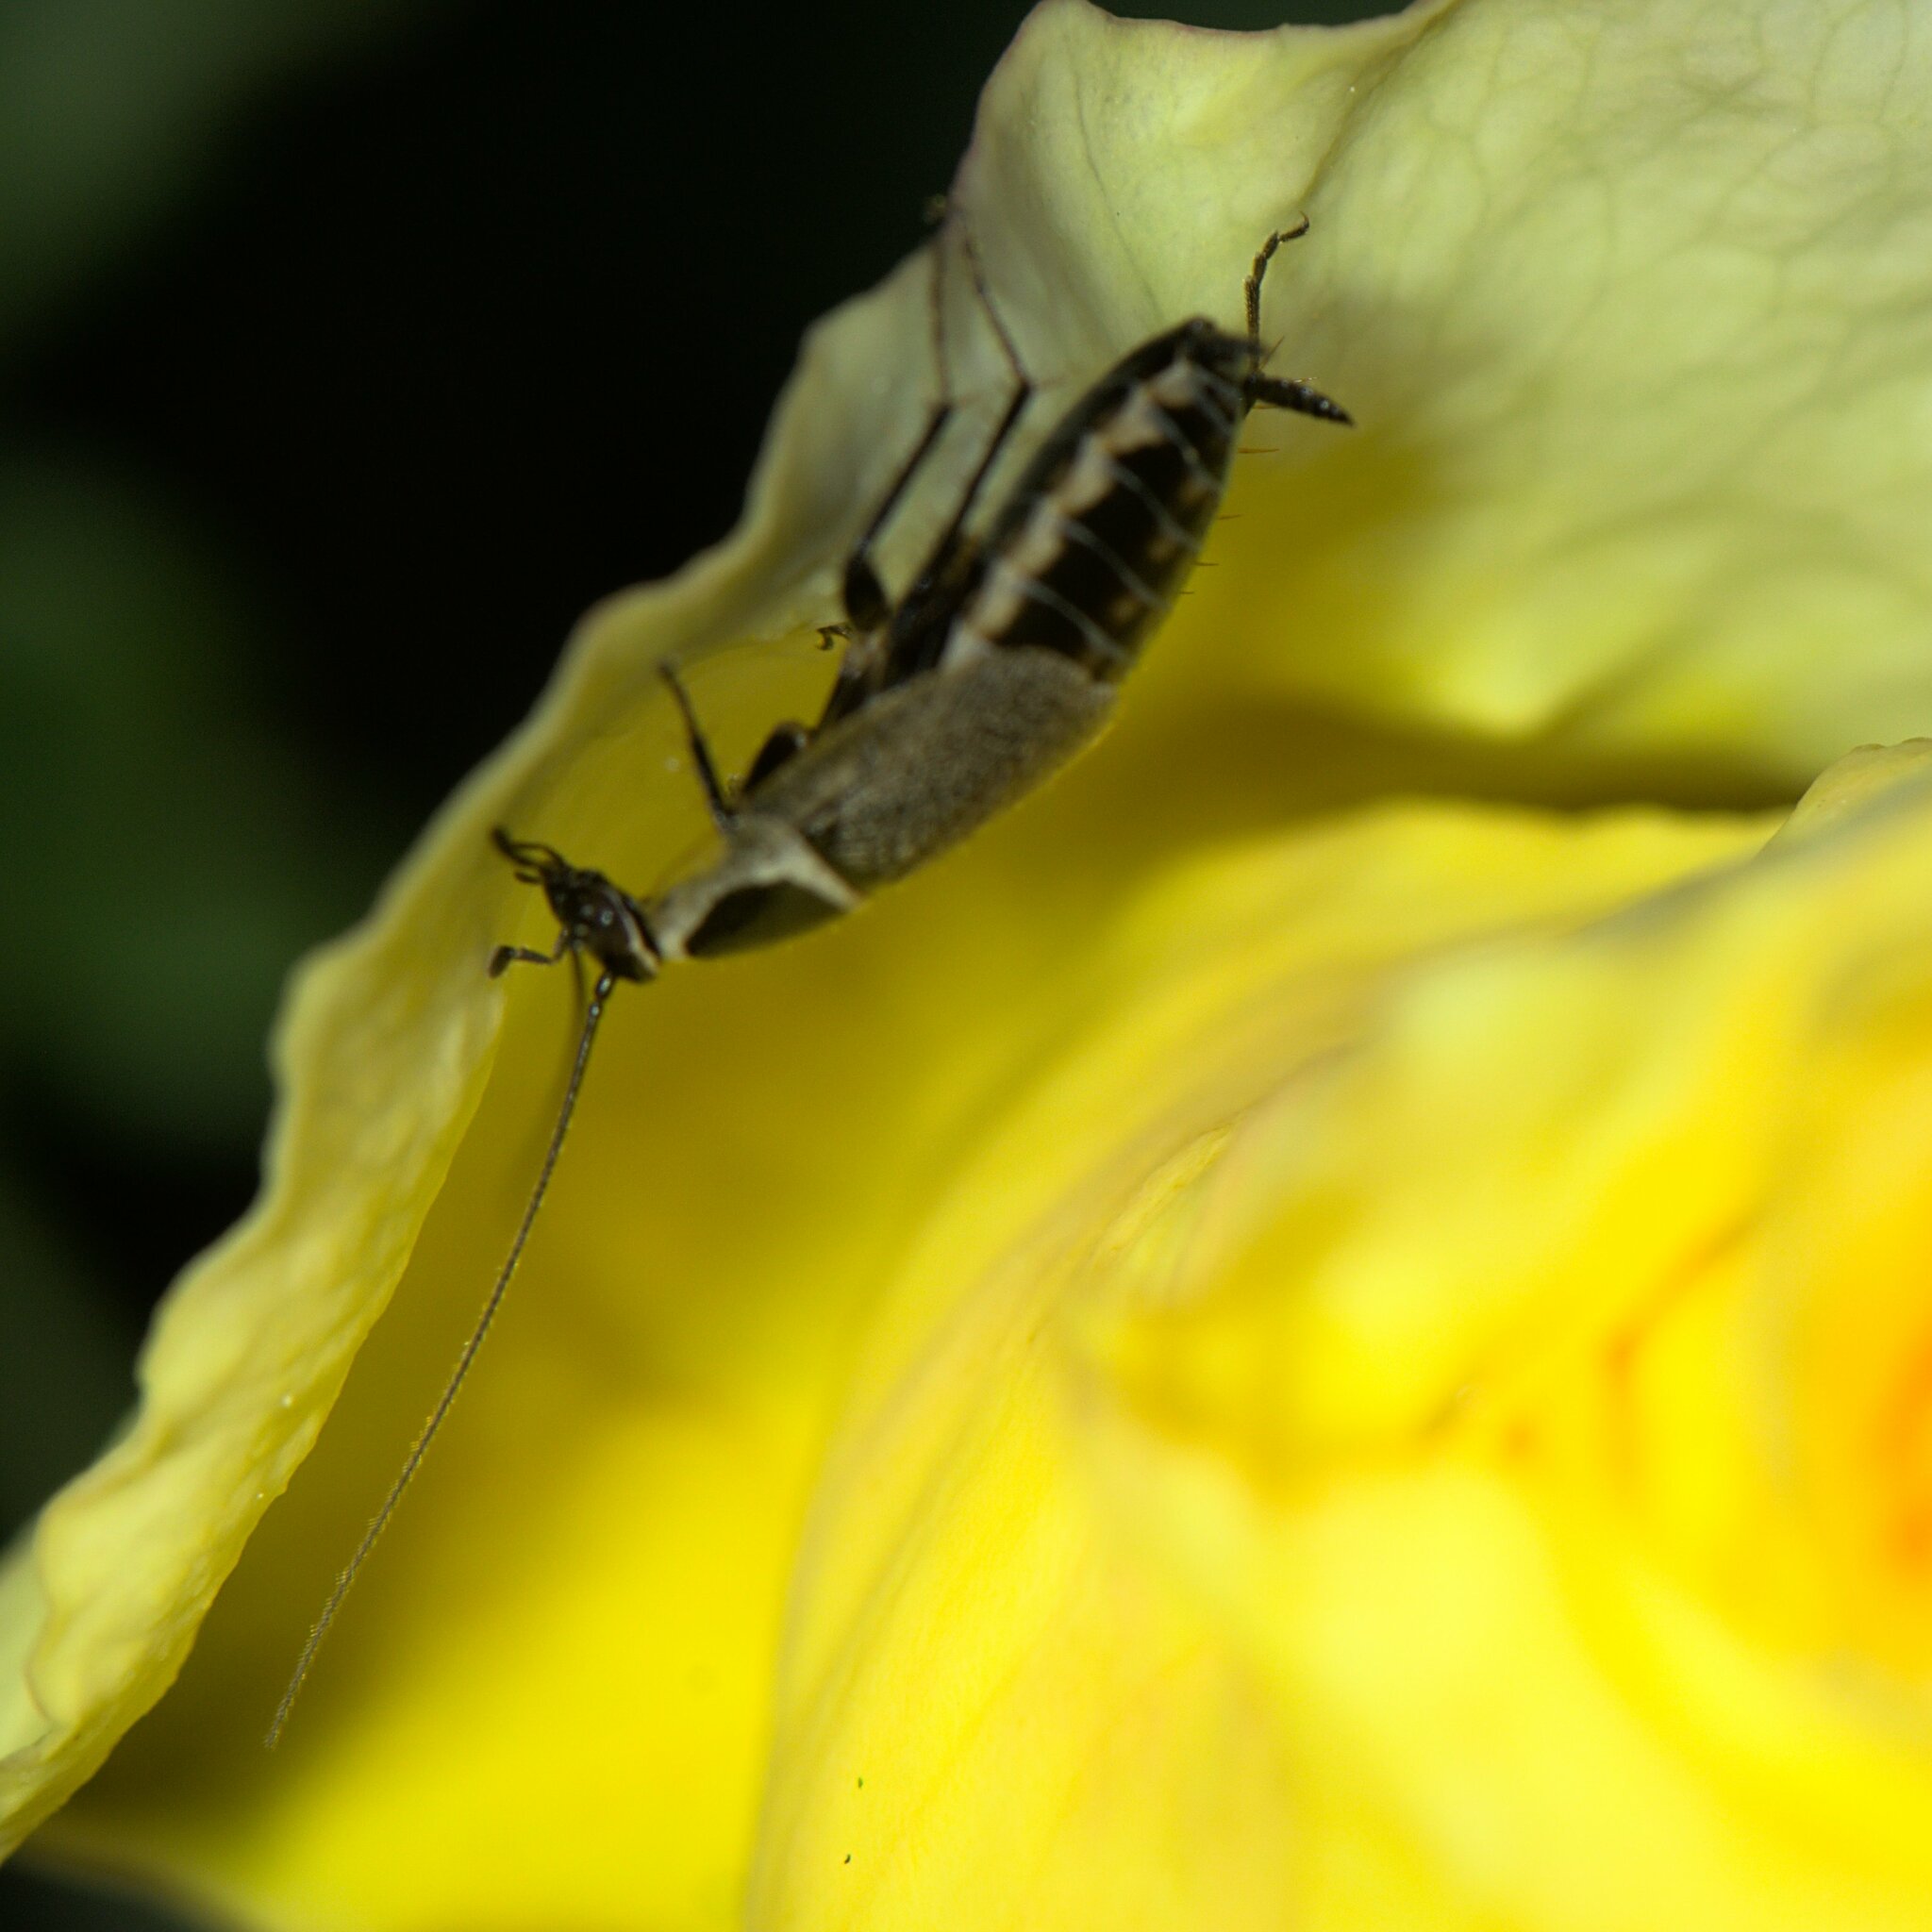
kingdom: Animalia
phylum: Arthropoda
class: Insecta
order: Blattodea
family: Ectobiidae
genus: Ectobius
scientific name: Ectobius indicus
